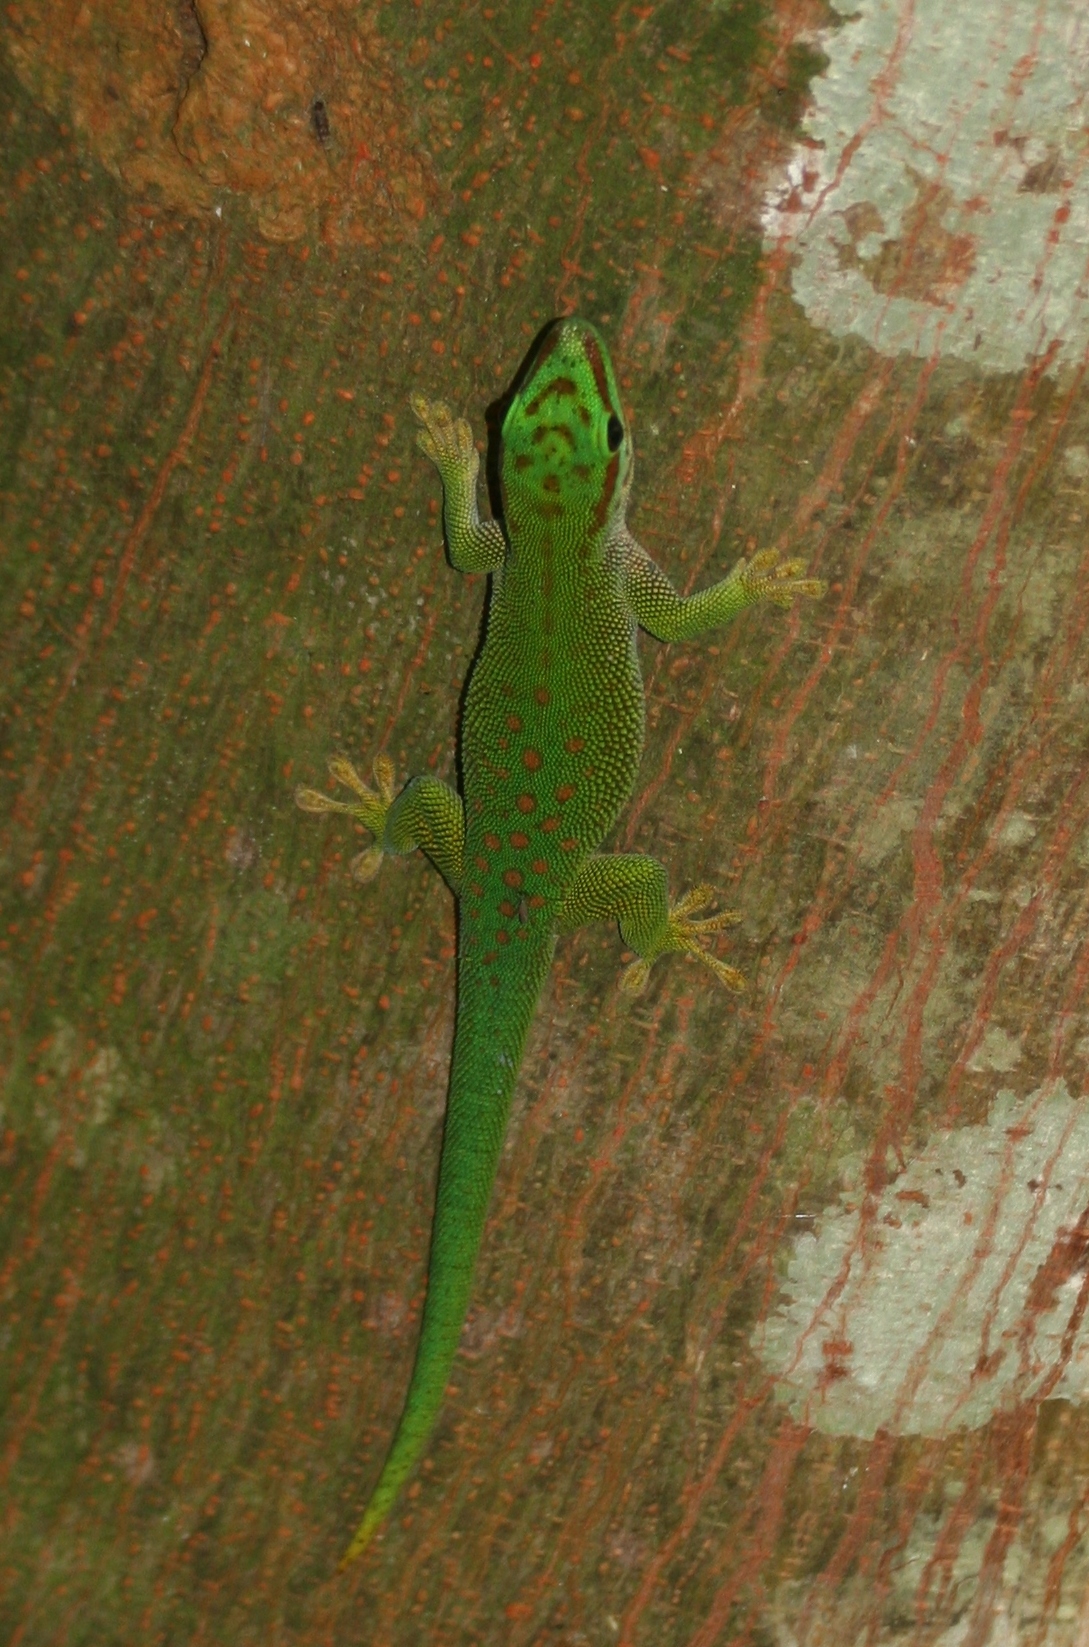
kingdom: Animalia
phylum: Chordata
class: Squamata
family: Gekkonidae
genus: Phelsuma
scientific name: Phelsuma madagascariensis
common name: Madagascar day gecko
